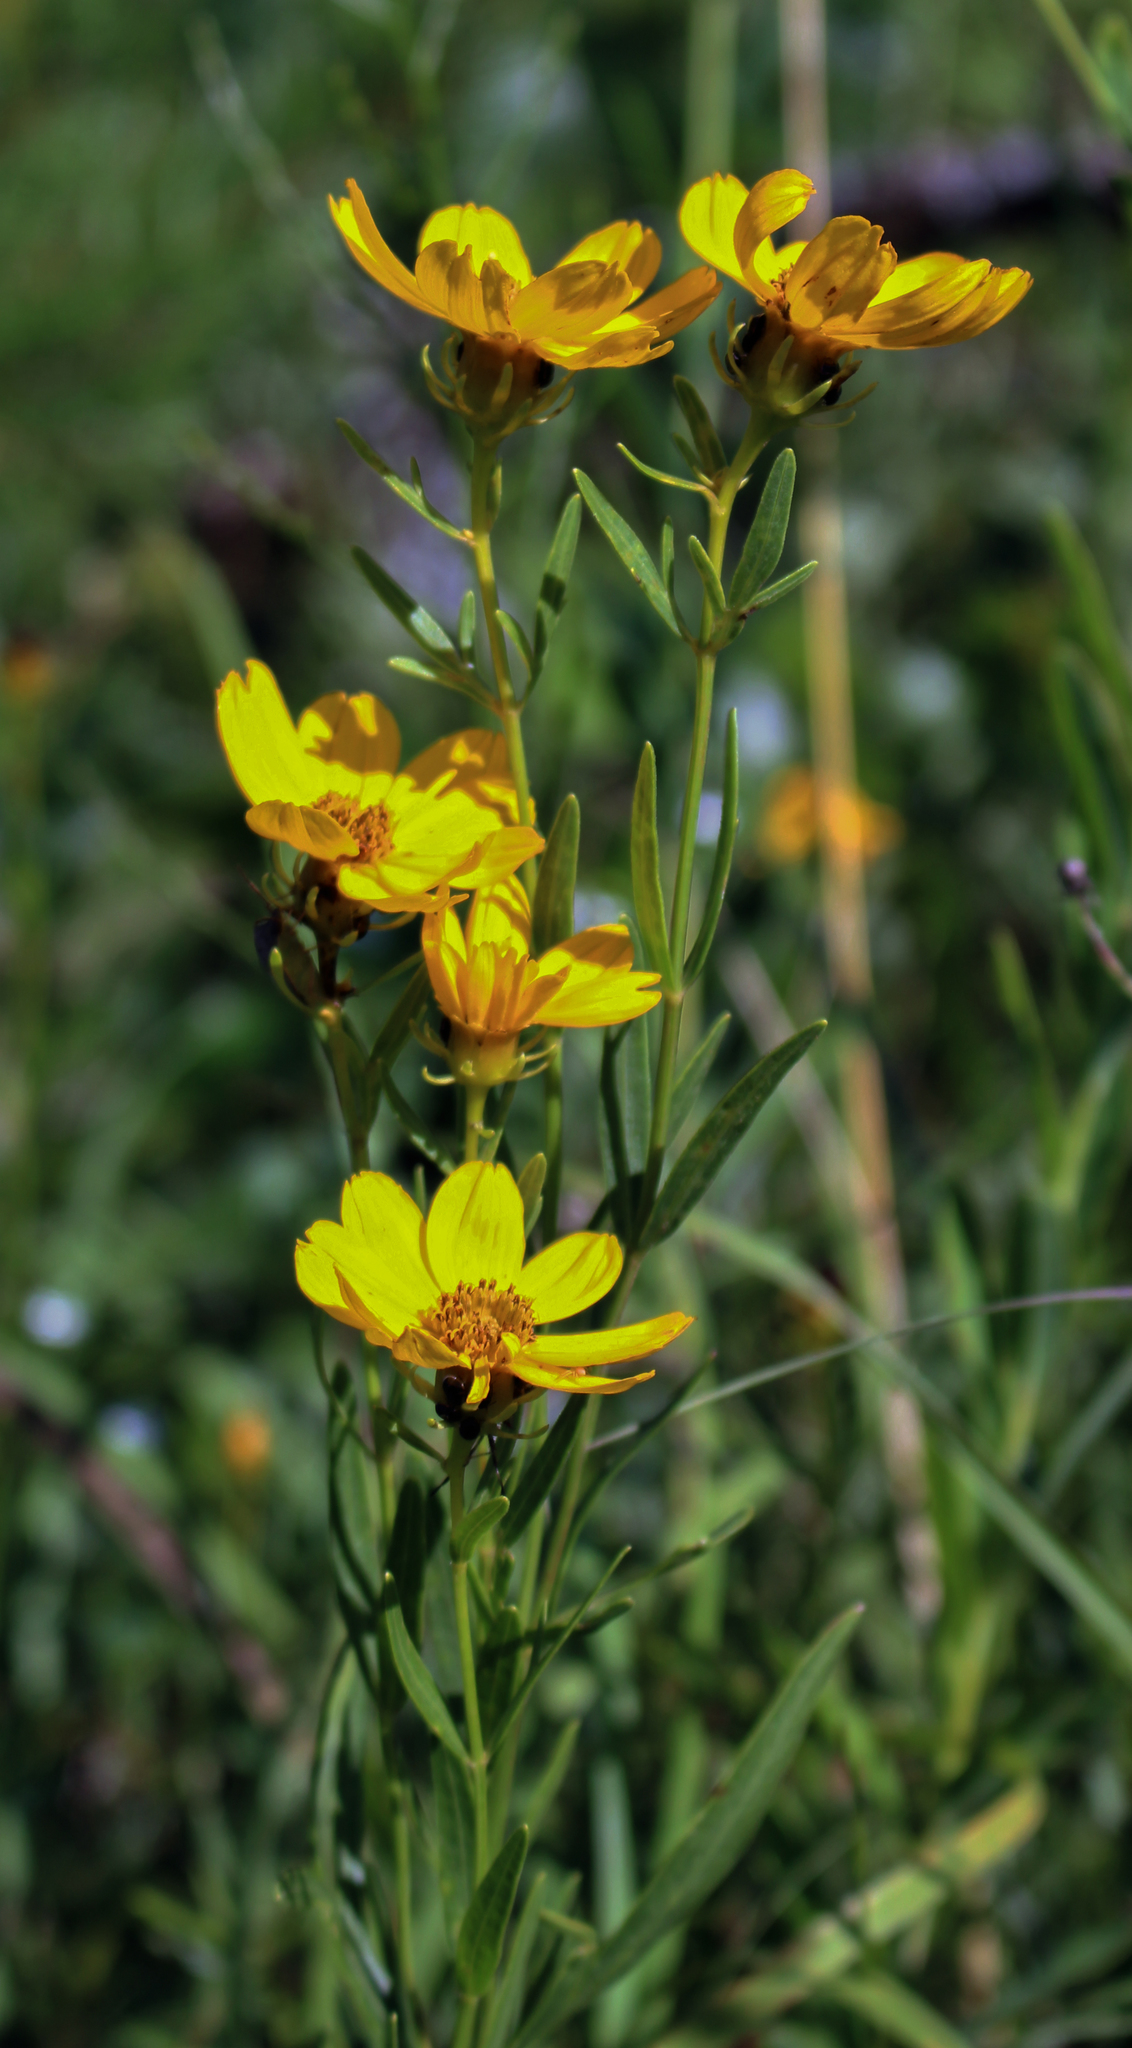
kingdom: Plantae
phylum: Tracheophyta
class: Magnoliopsida
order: Asterales
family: Asteraceae
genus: Coreopsis
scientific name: Coreopsis palmata
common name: Prairie coreopsis
